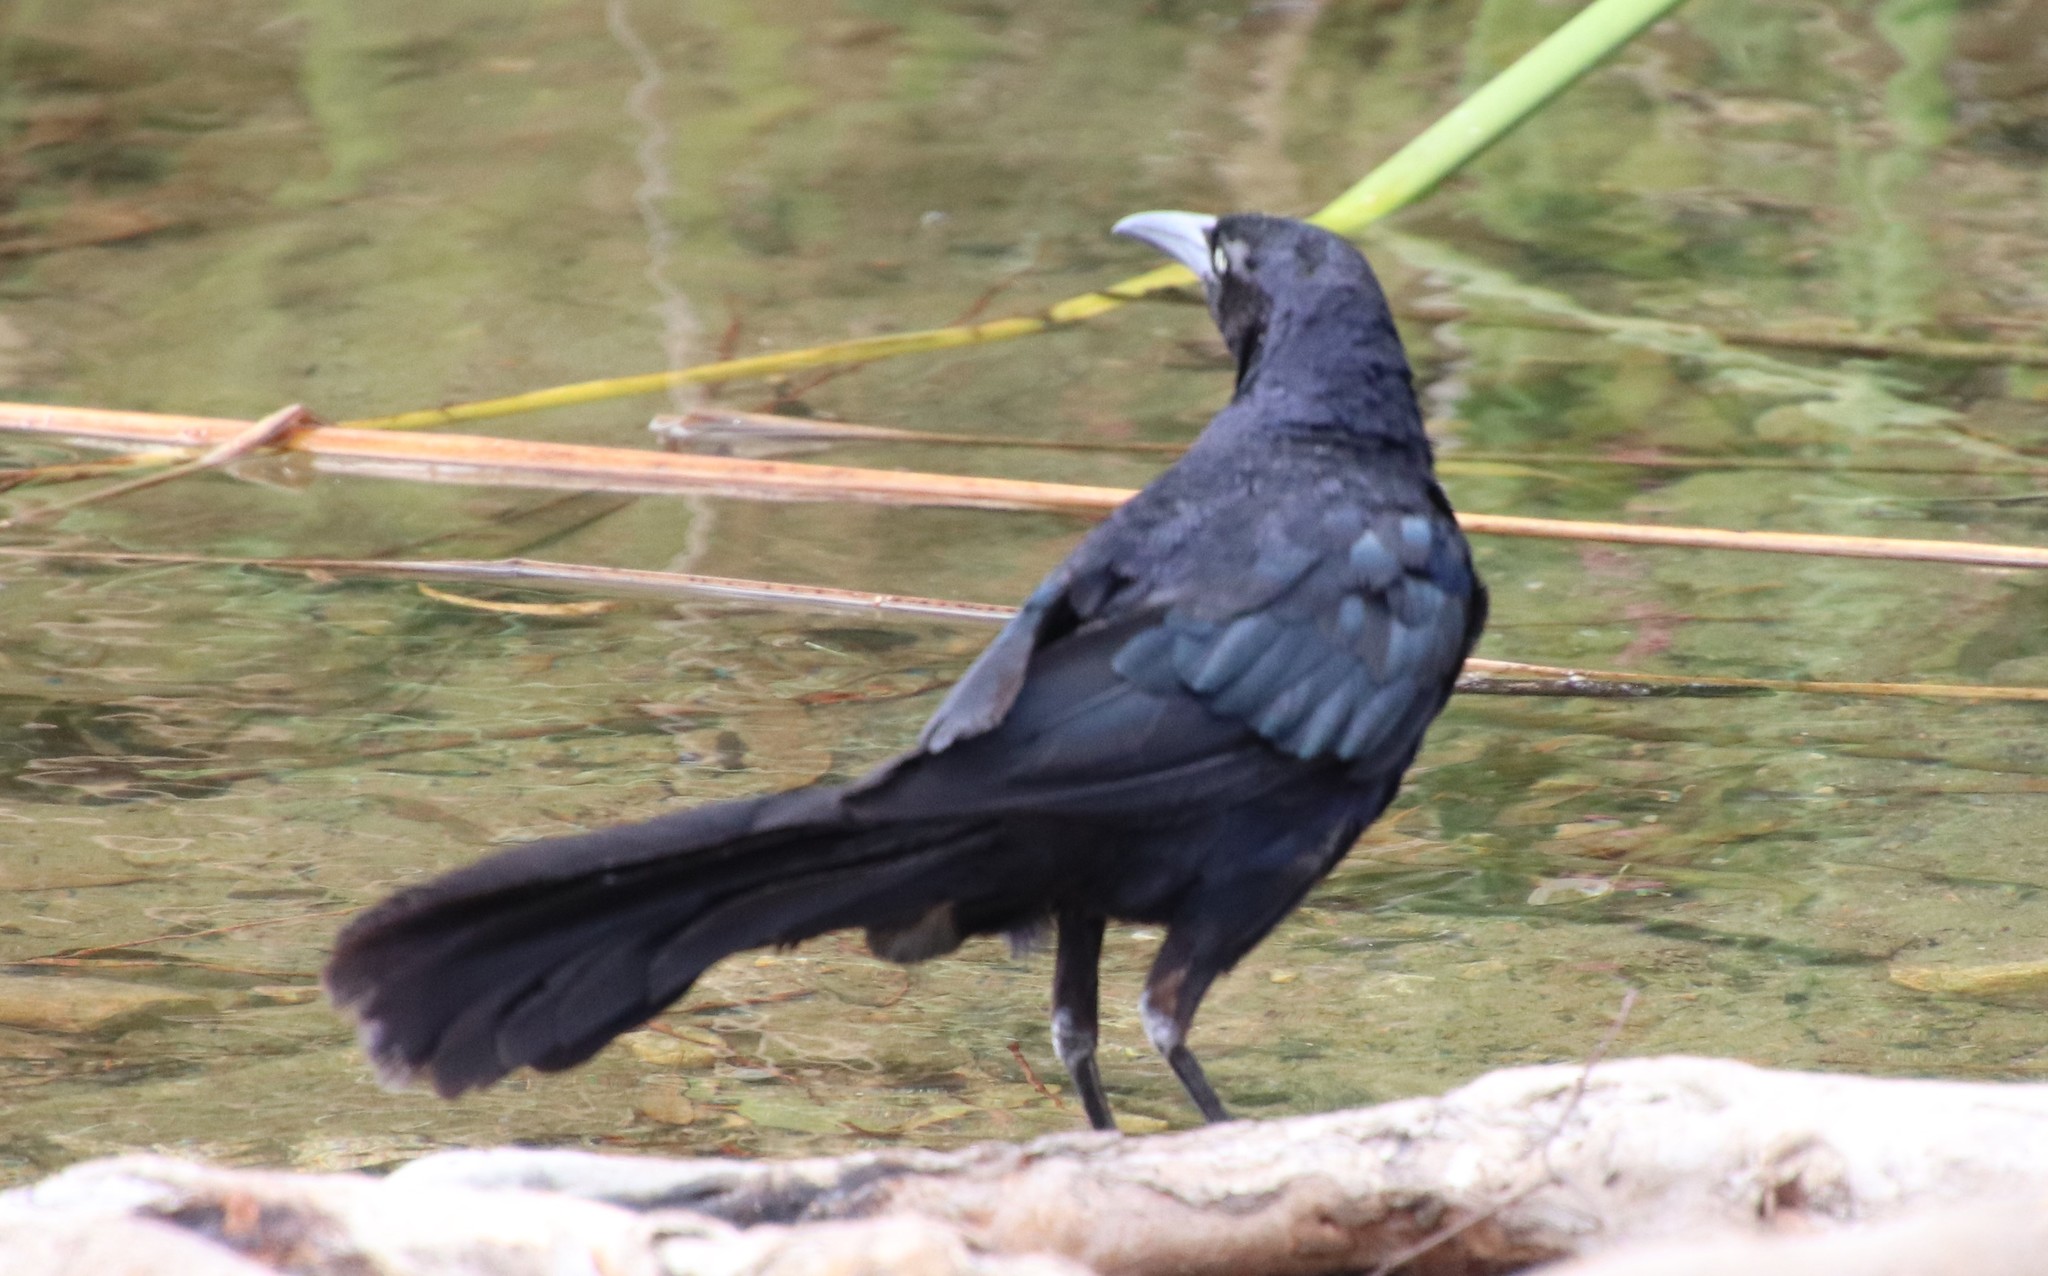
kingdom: Animalia
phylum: Chordata
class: Aves
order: Passeriformes
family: Icteridae
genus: Quiscalus
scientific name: Quiscalus mexicanus
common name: Great-tailed grackle
